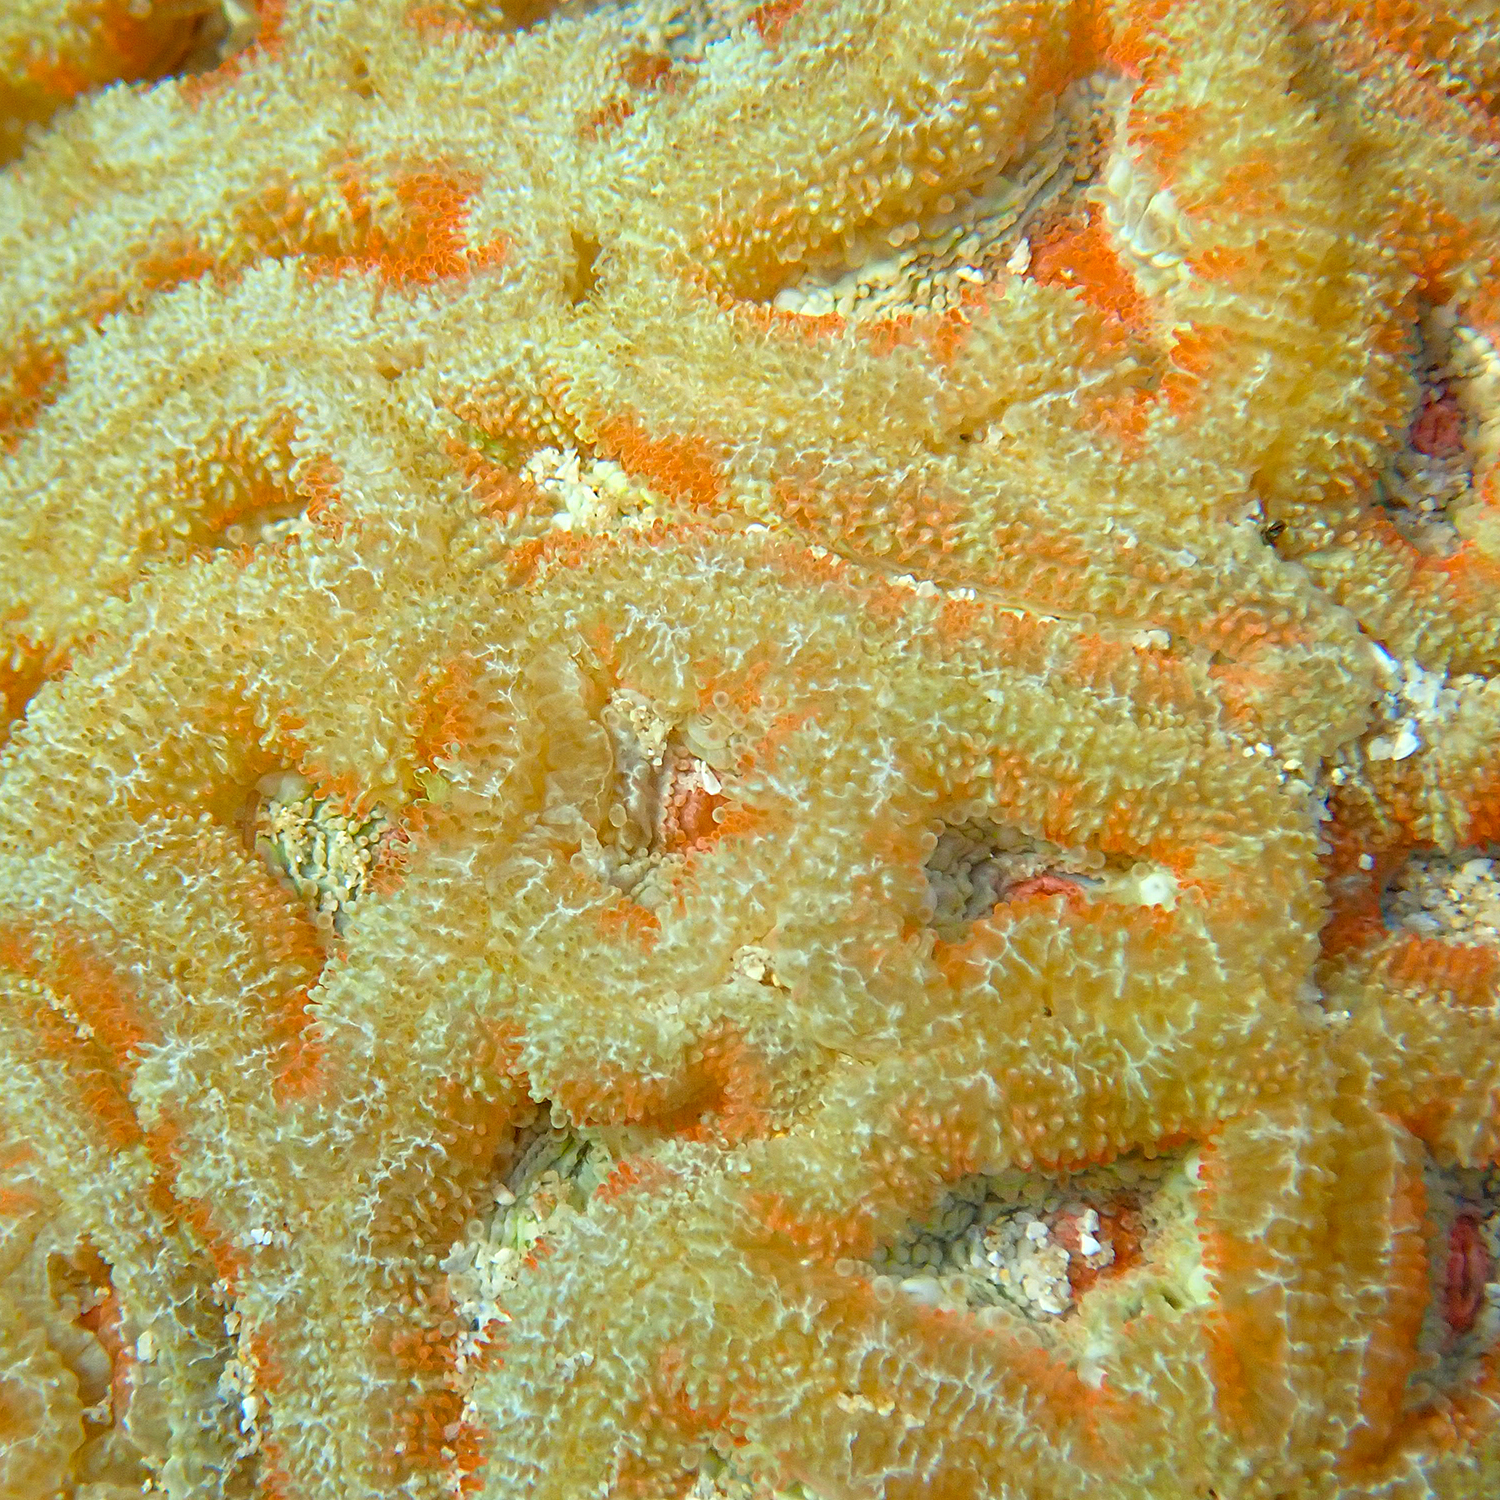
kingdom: Animalia
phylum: Cnidaria
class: Anthozoa
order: Scleractinia
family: Lobophylliidae
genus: Micromussa
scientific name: Micromussa lordhowensis
